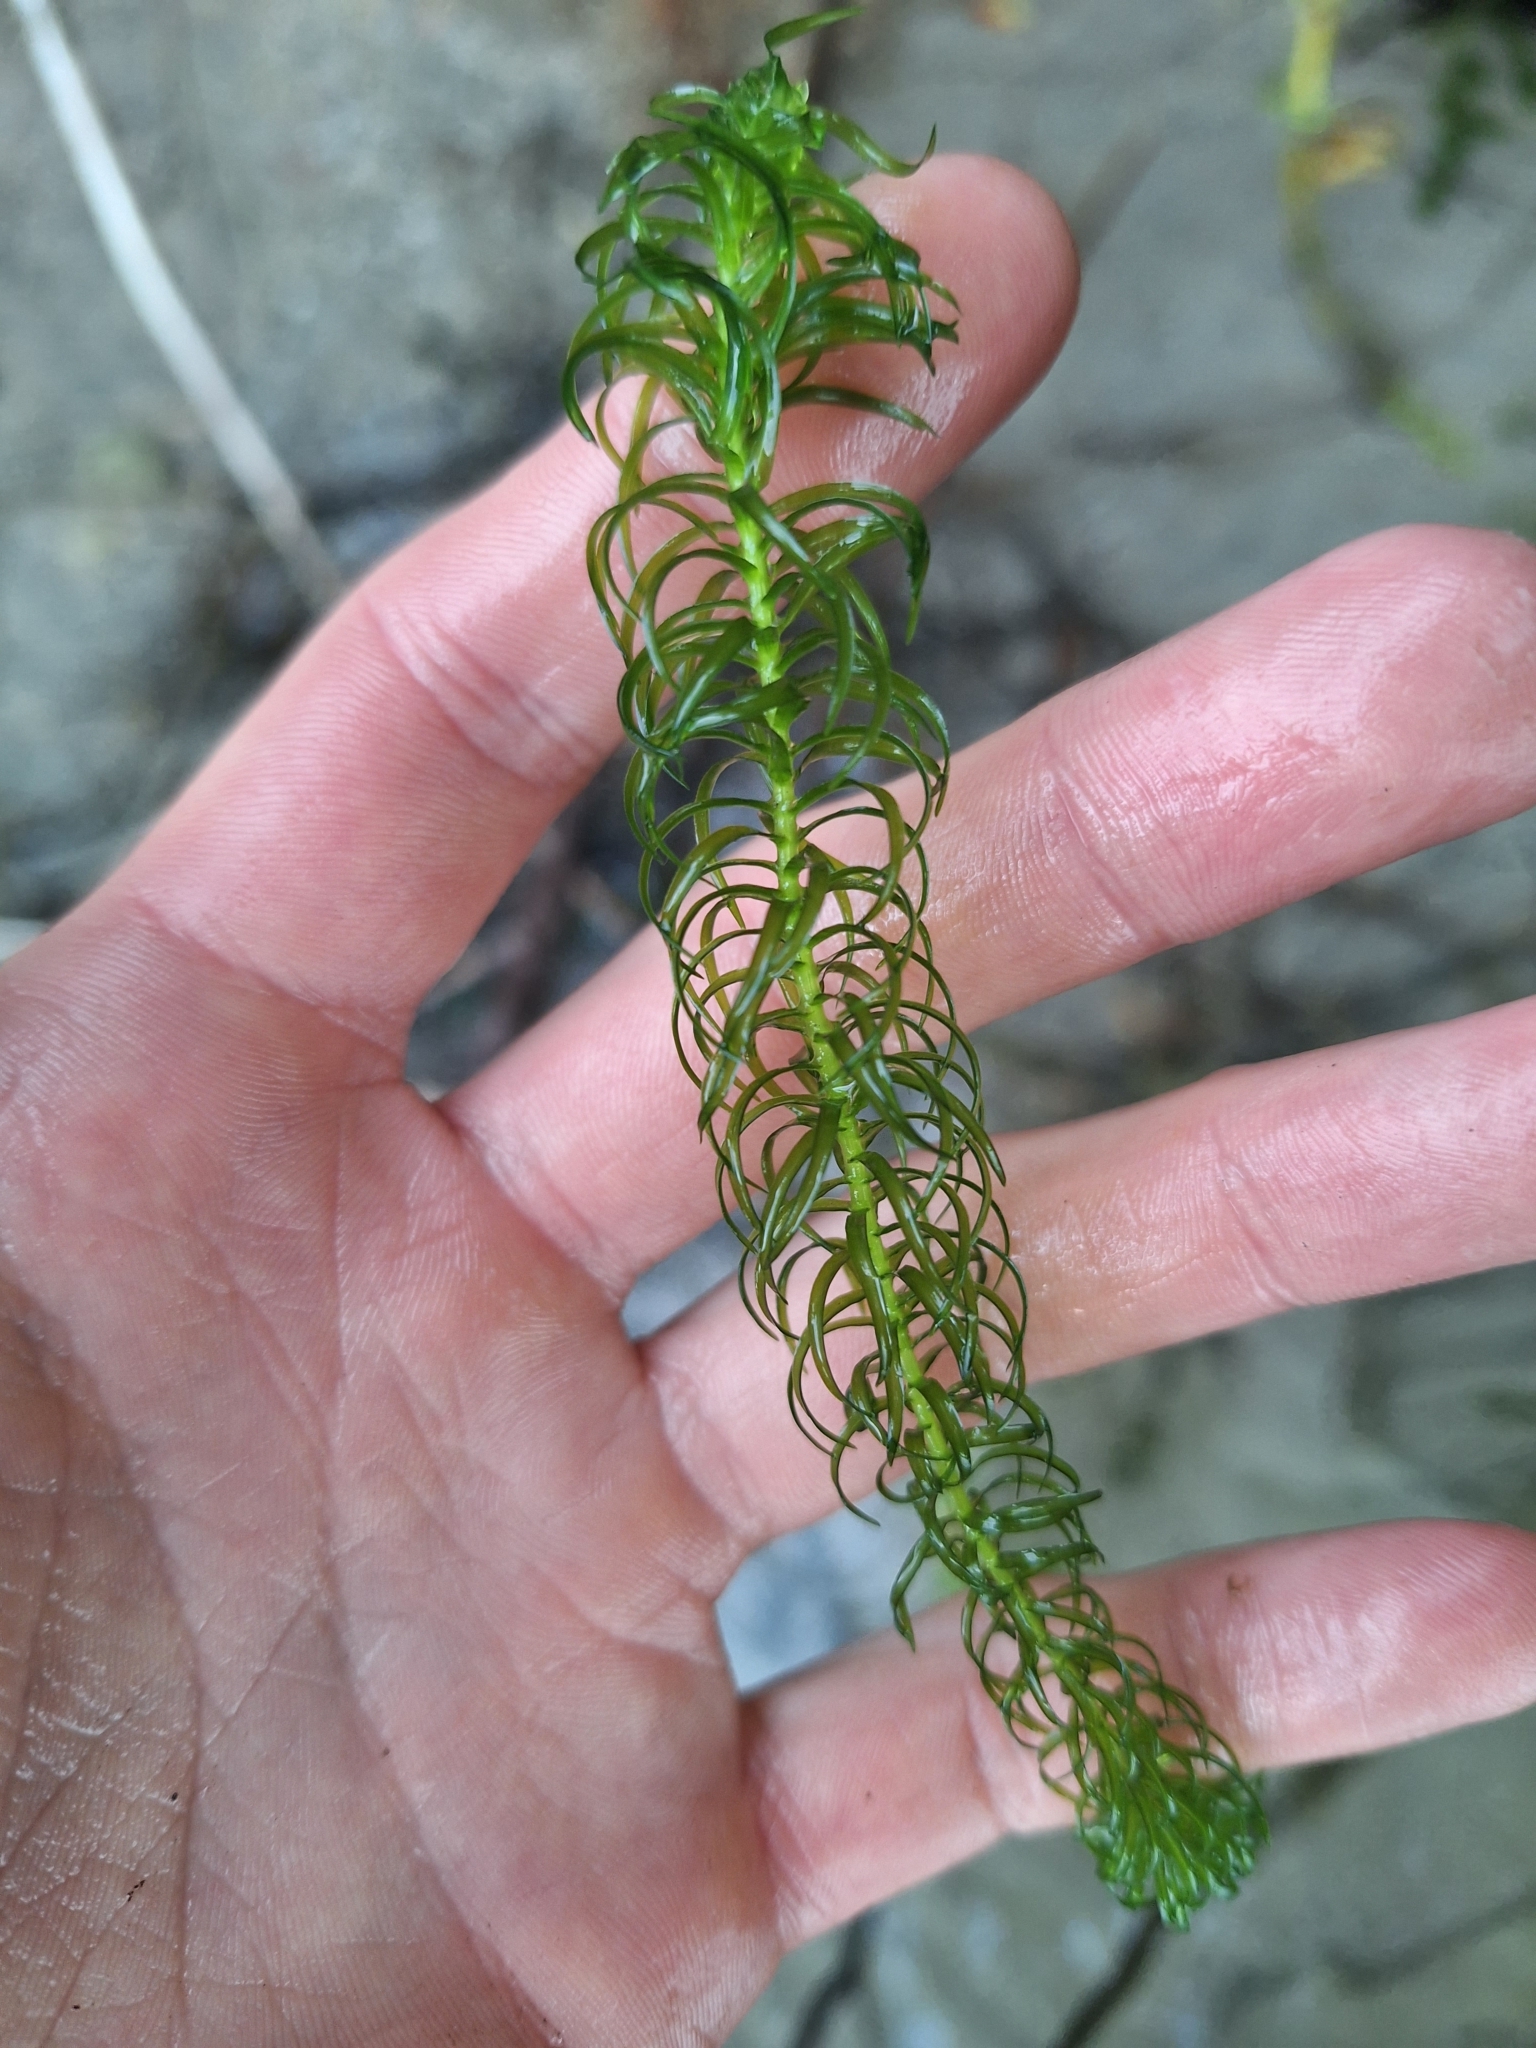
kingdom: Plantae
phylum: Tracheophyta
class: Liliopsida
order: Alismatales
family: Hydrocharitaceae
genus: Lagarosiphon
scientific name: Lagarosiphon major
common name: Curly waterweed
